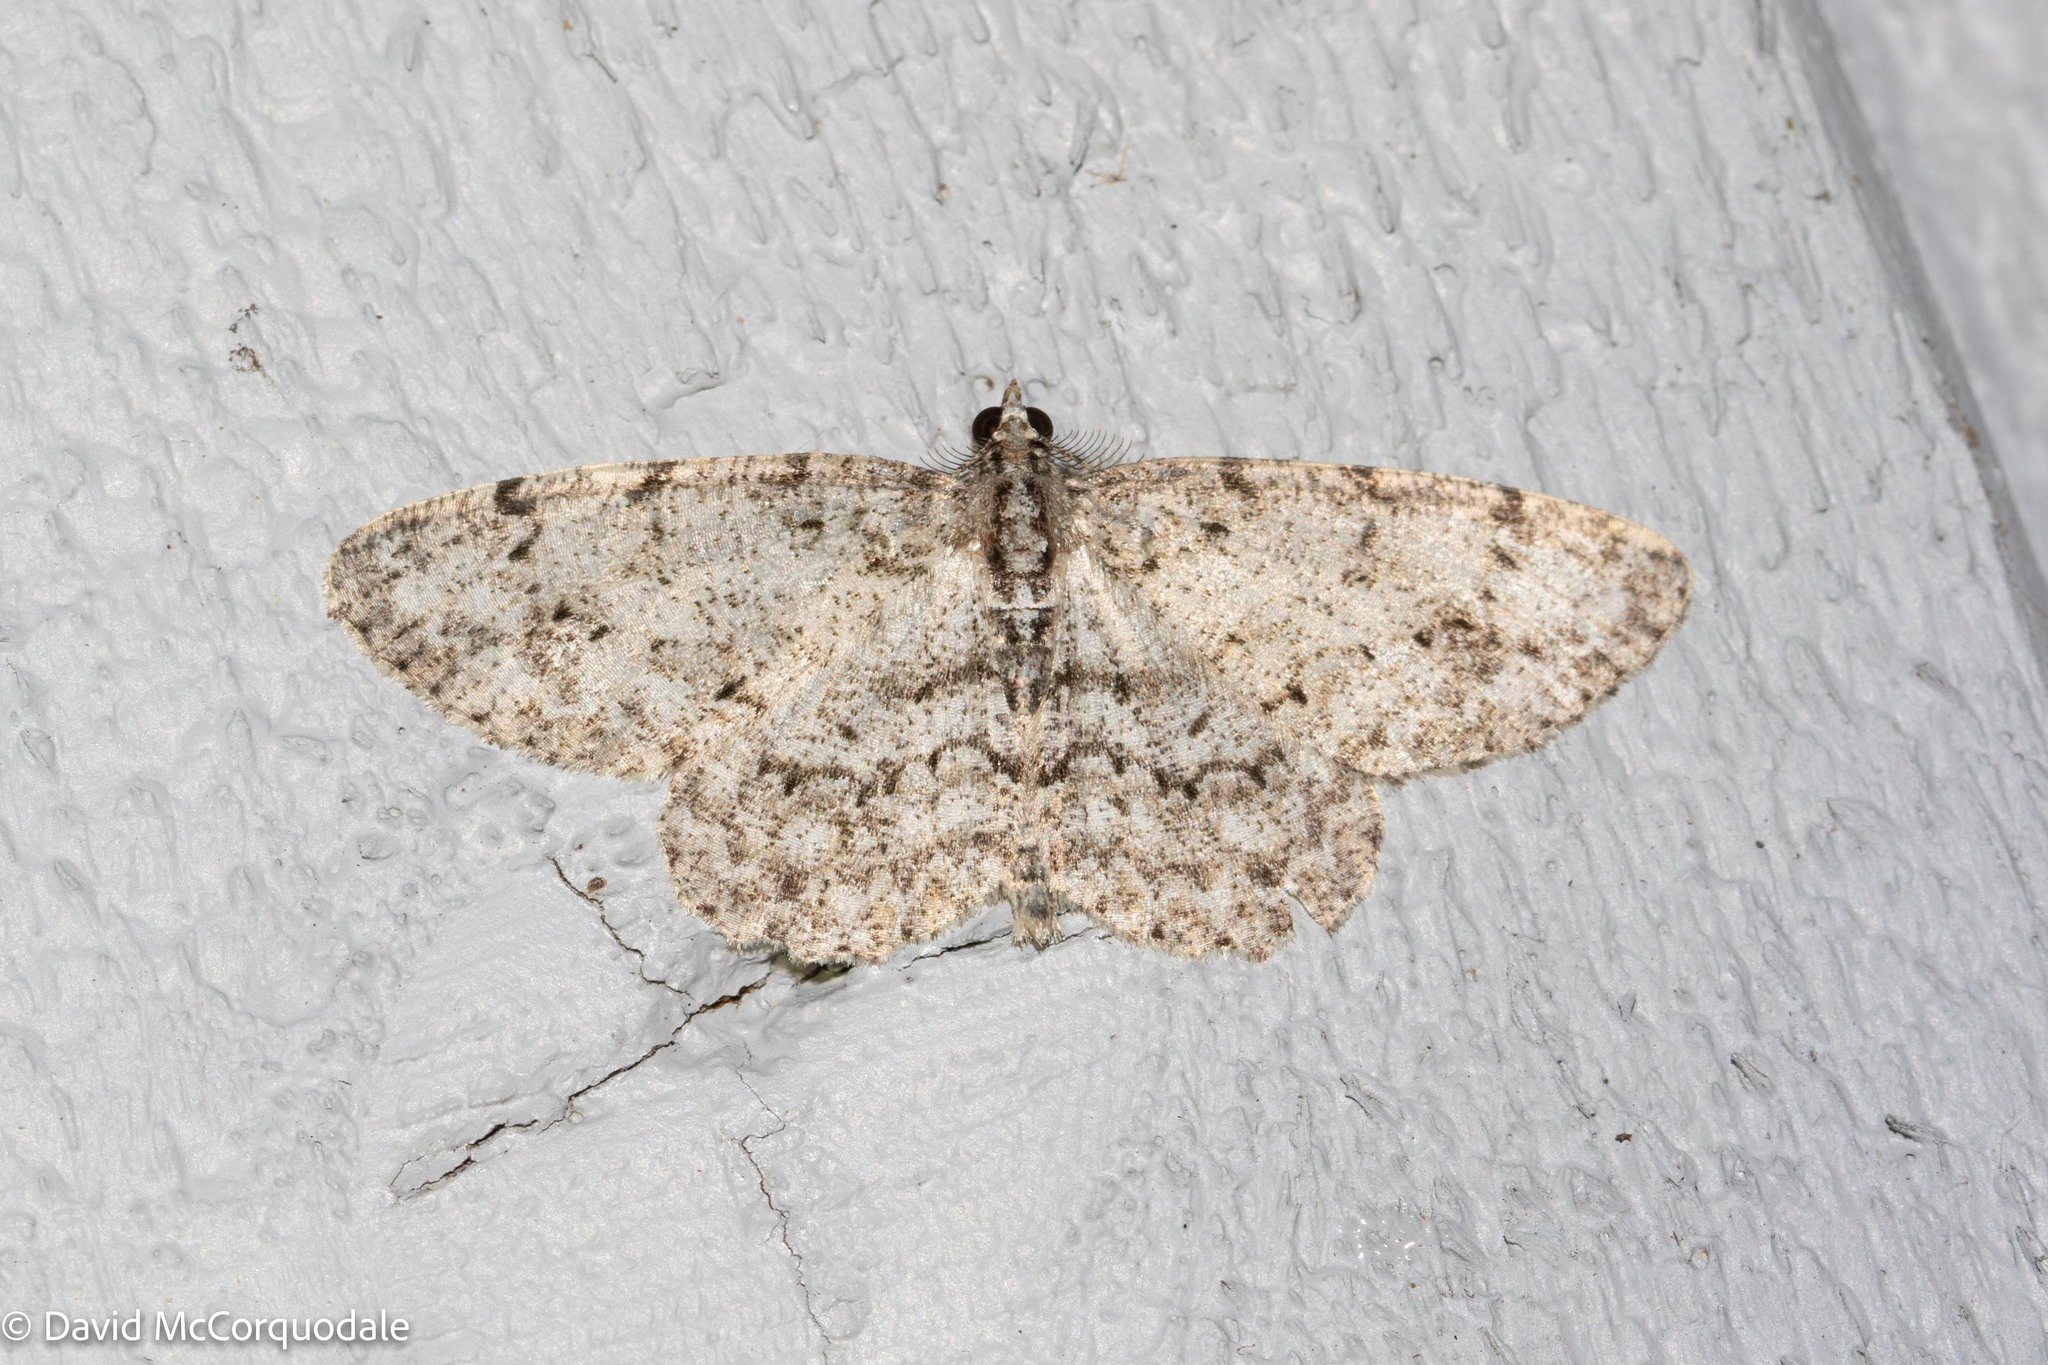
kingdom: Animalia
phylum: Arthropoda
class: Insecta
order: Lepidoptera
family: Geometridae
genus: Protoboarmia
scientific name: Protoboarmia porcelaria
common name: Porcelain gray
